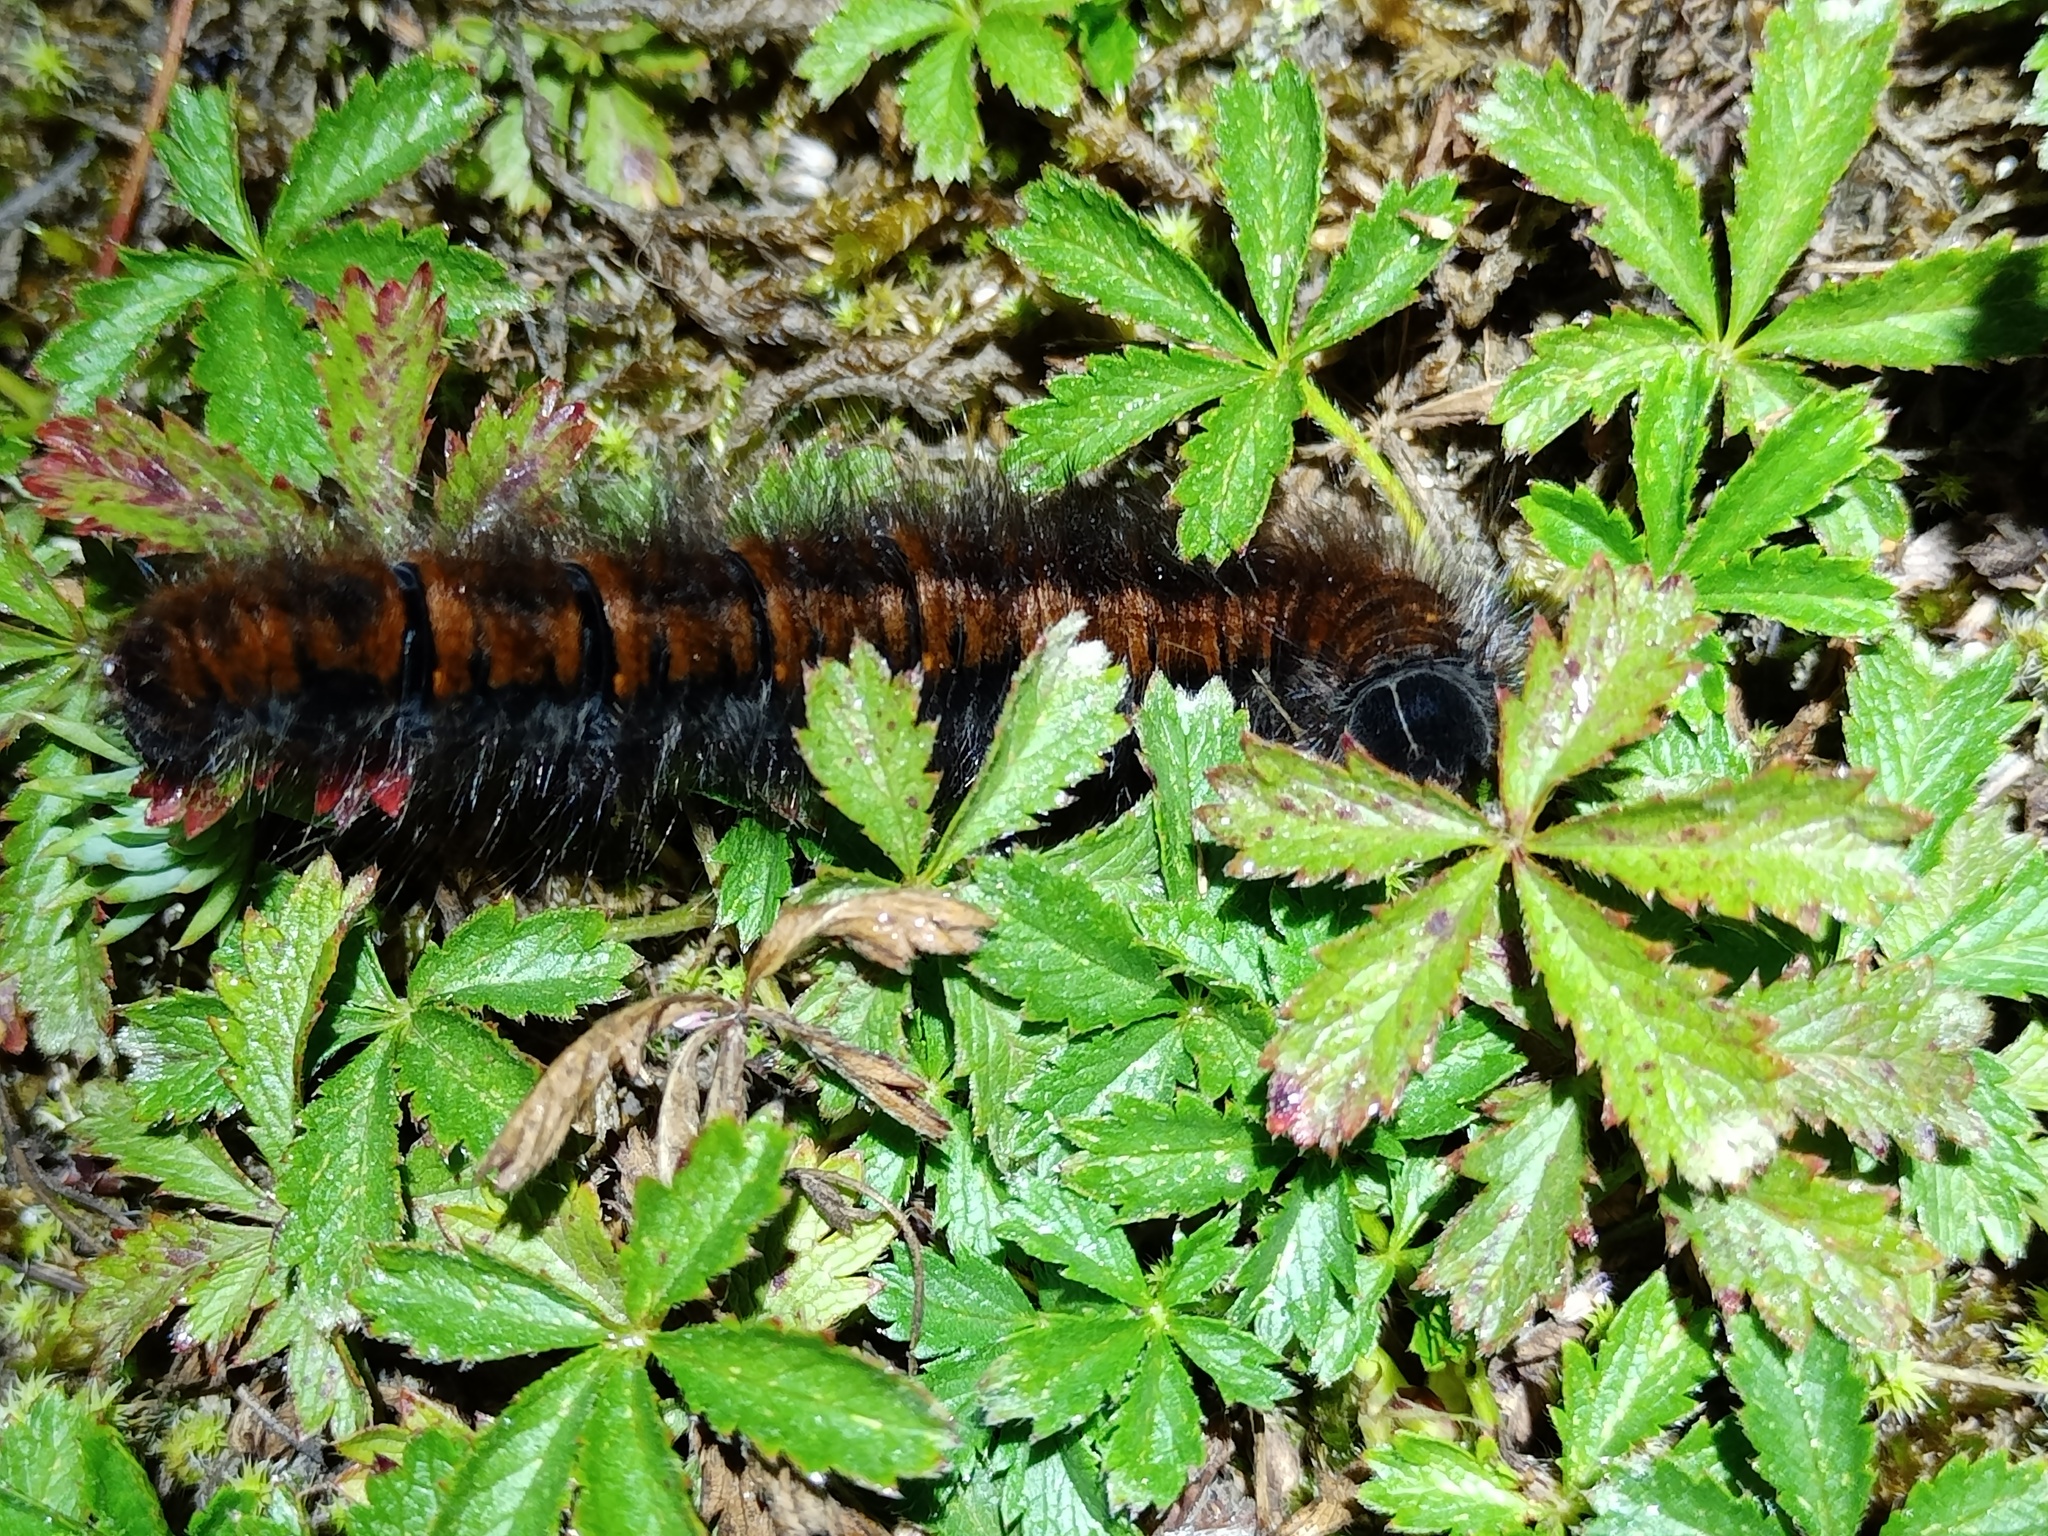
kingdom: Animalia
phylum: Arthropoda
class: Insecta
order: Lepidoptera
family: Lasiocampidae
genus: Macrothylacia
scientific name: Macrothylacia rubi
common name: Fox moth
